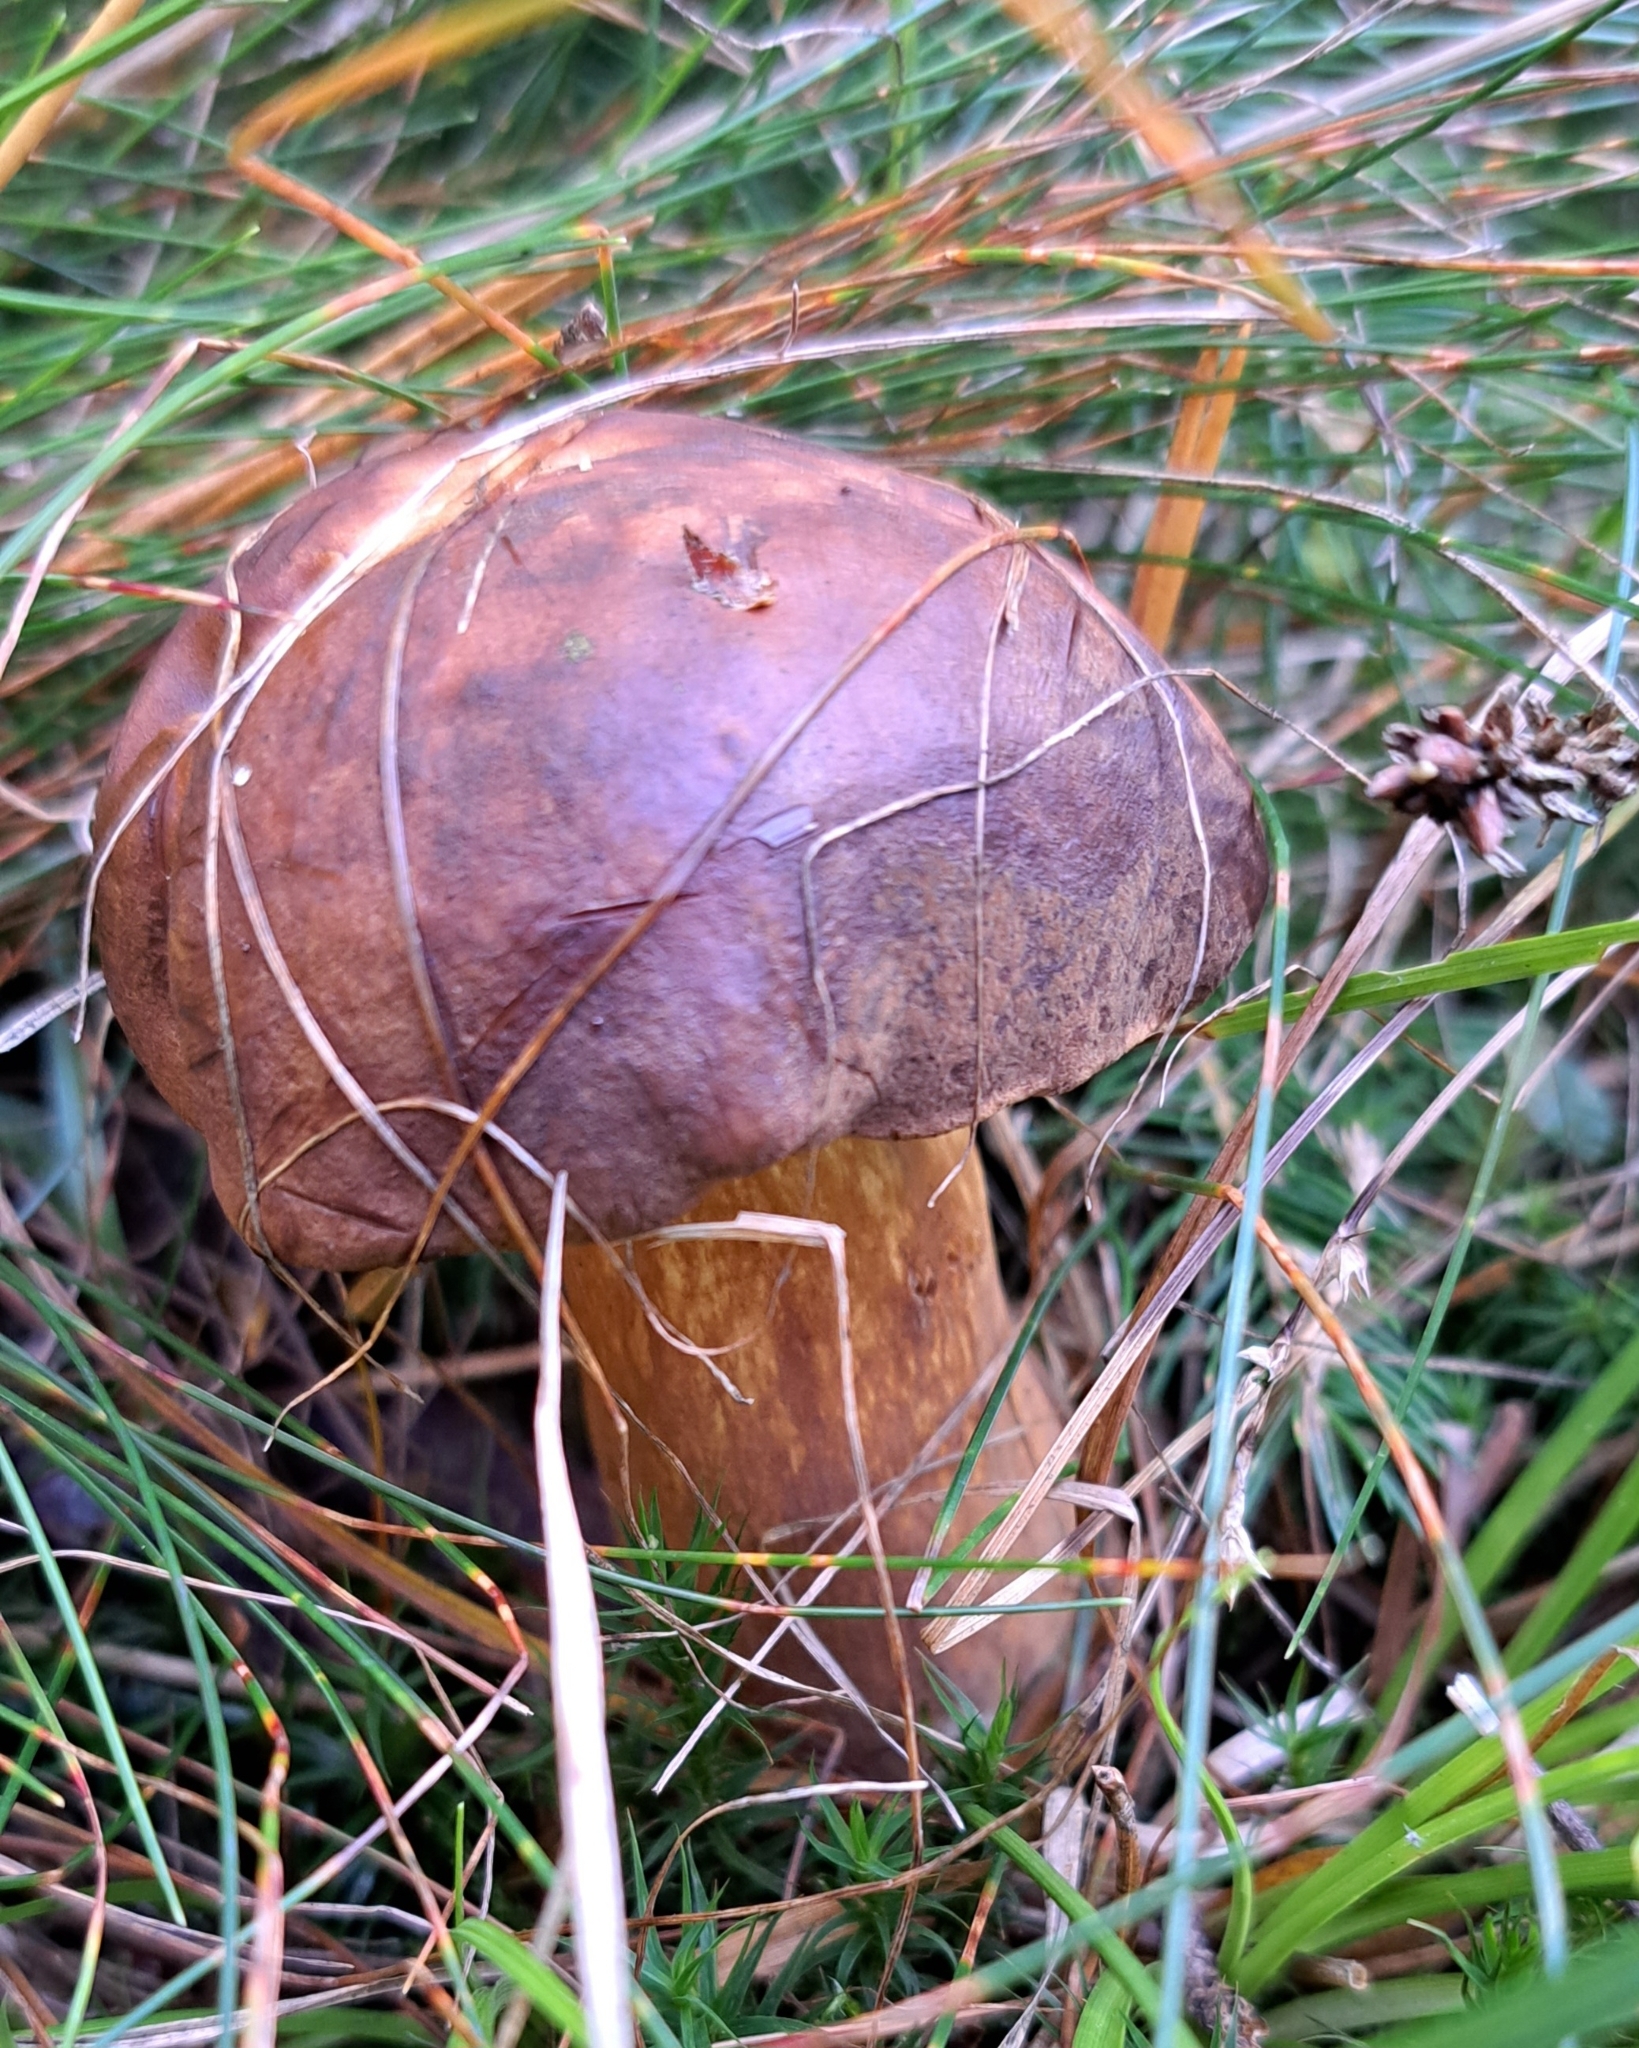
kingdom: Fungi
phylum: Basidiomycota
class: Agaricomycetes
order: Boletales
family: Boletaceae
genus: Imleria
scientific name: Imleria badia
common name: Bay bolete
